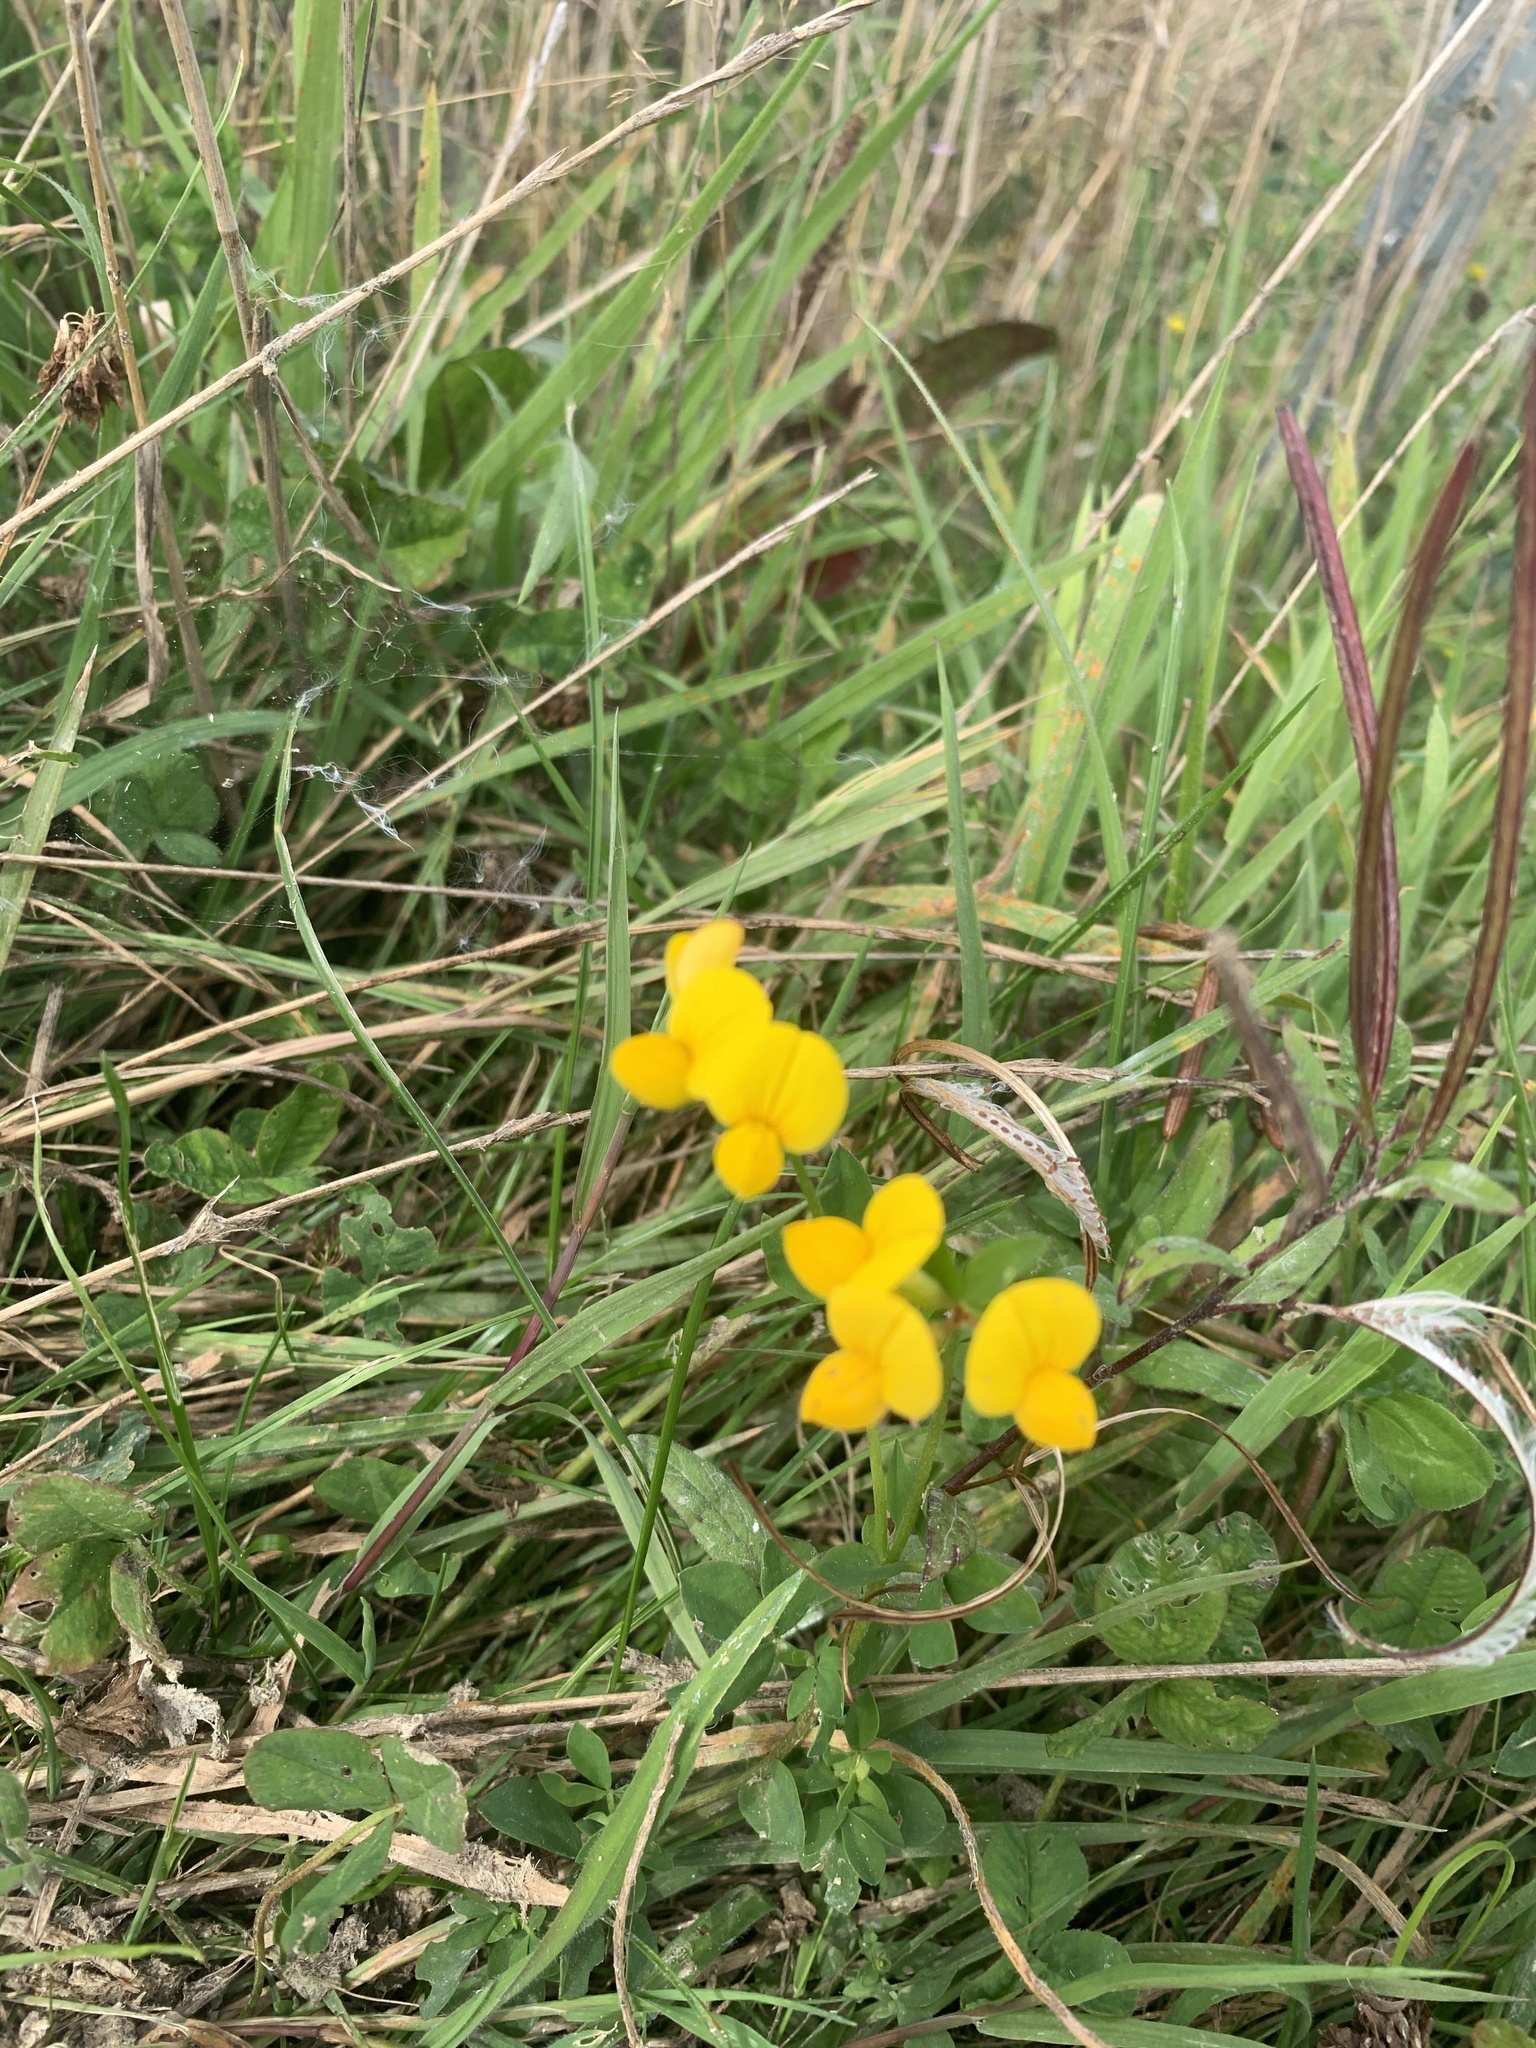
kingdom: Plantae
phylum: Tracheophyta
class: Magnoliopsida
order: Fabales
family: Fabaceae
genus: Lotus
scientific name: Lotus corniculatus
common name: Common bird's-foot-trefoil
